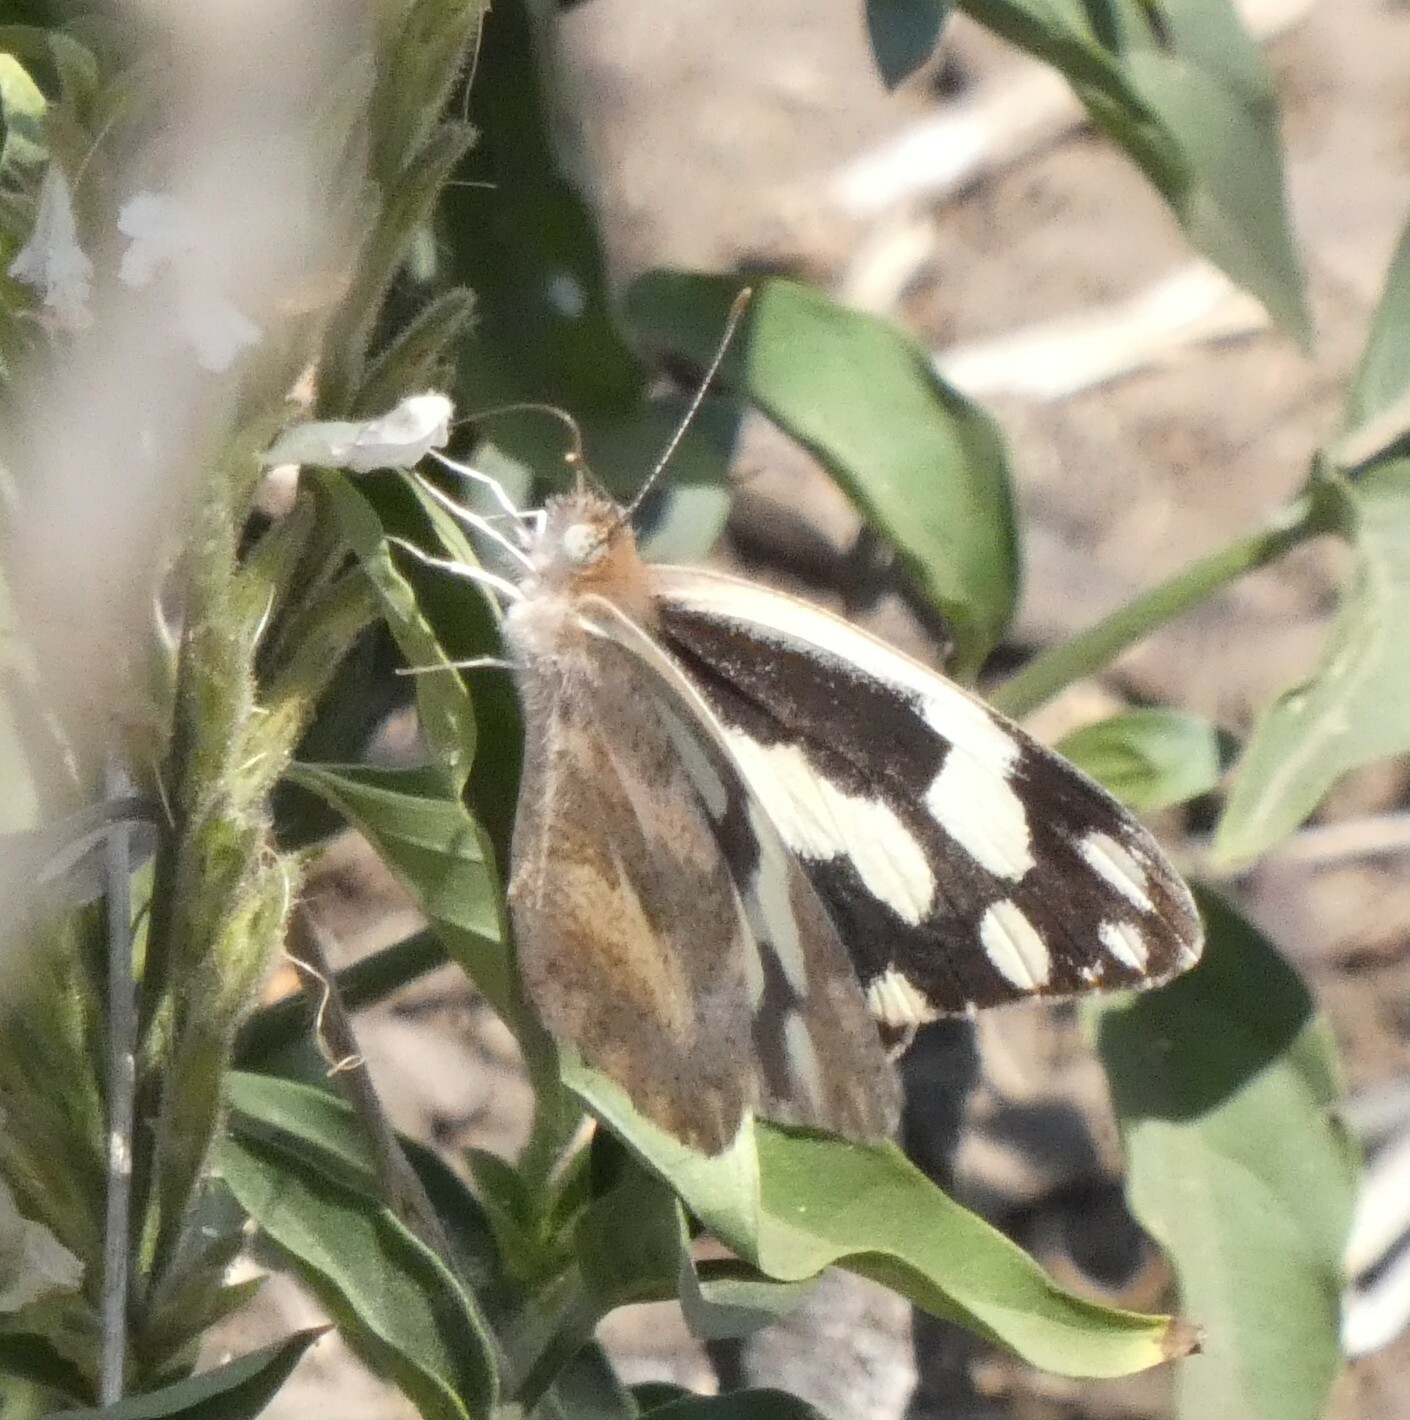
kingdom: Animalia
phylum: Arthropoda
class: Insecta
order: Lepidoptera
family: Pieridae
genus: Pinacopteryx
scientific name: Pinacopteryx eriphia
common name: Zebra white
